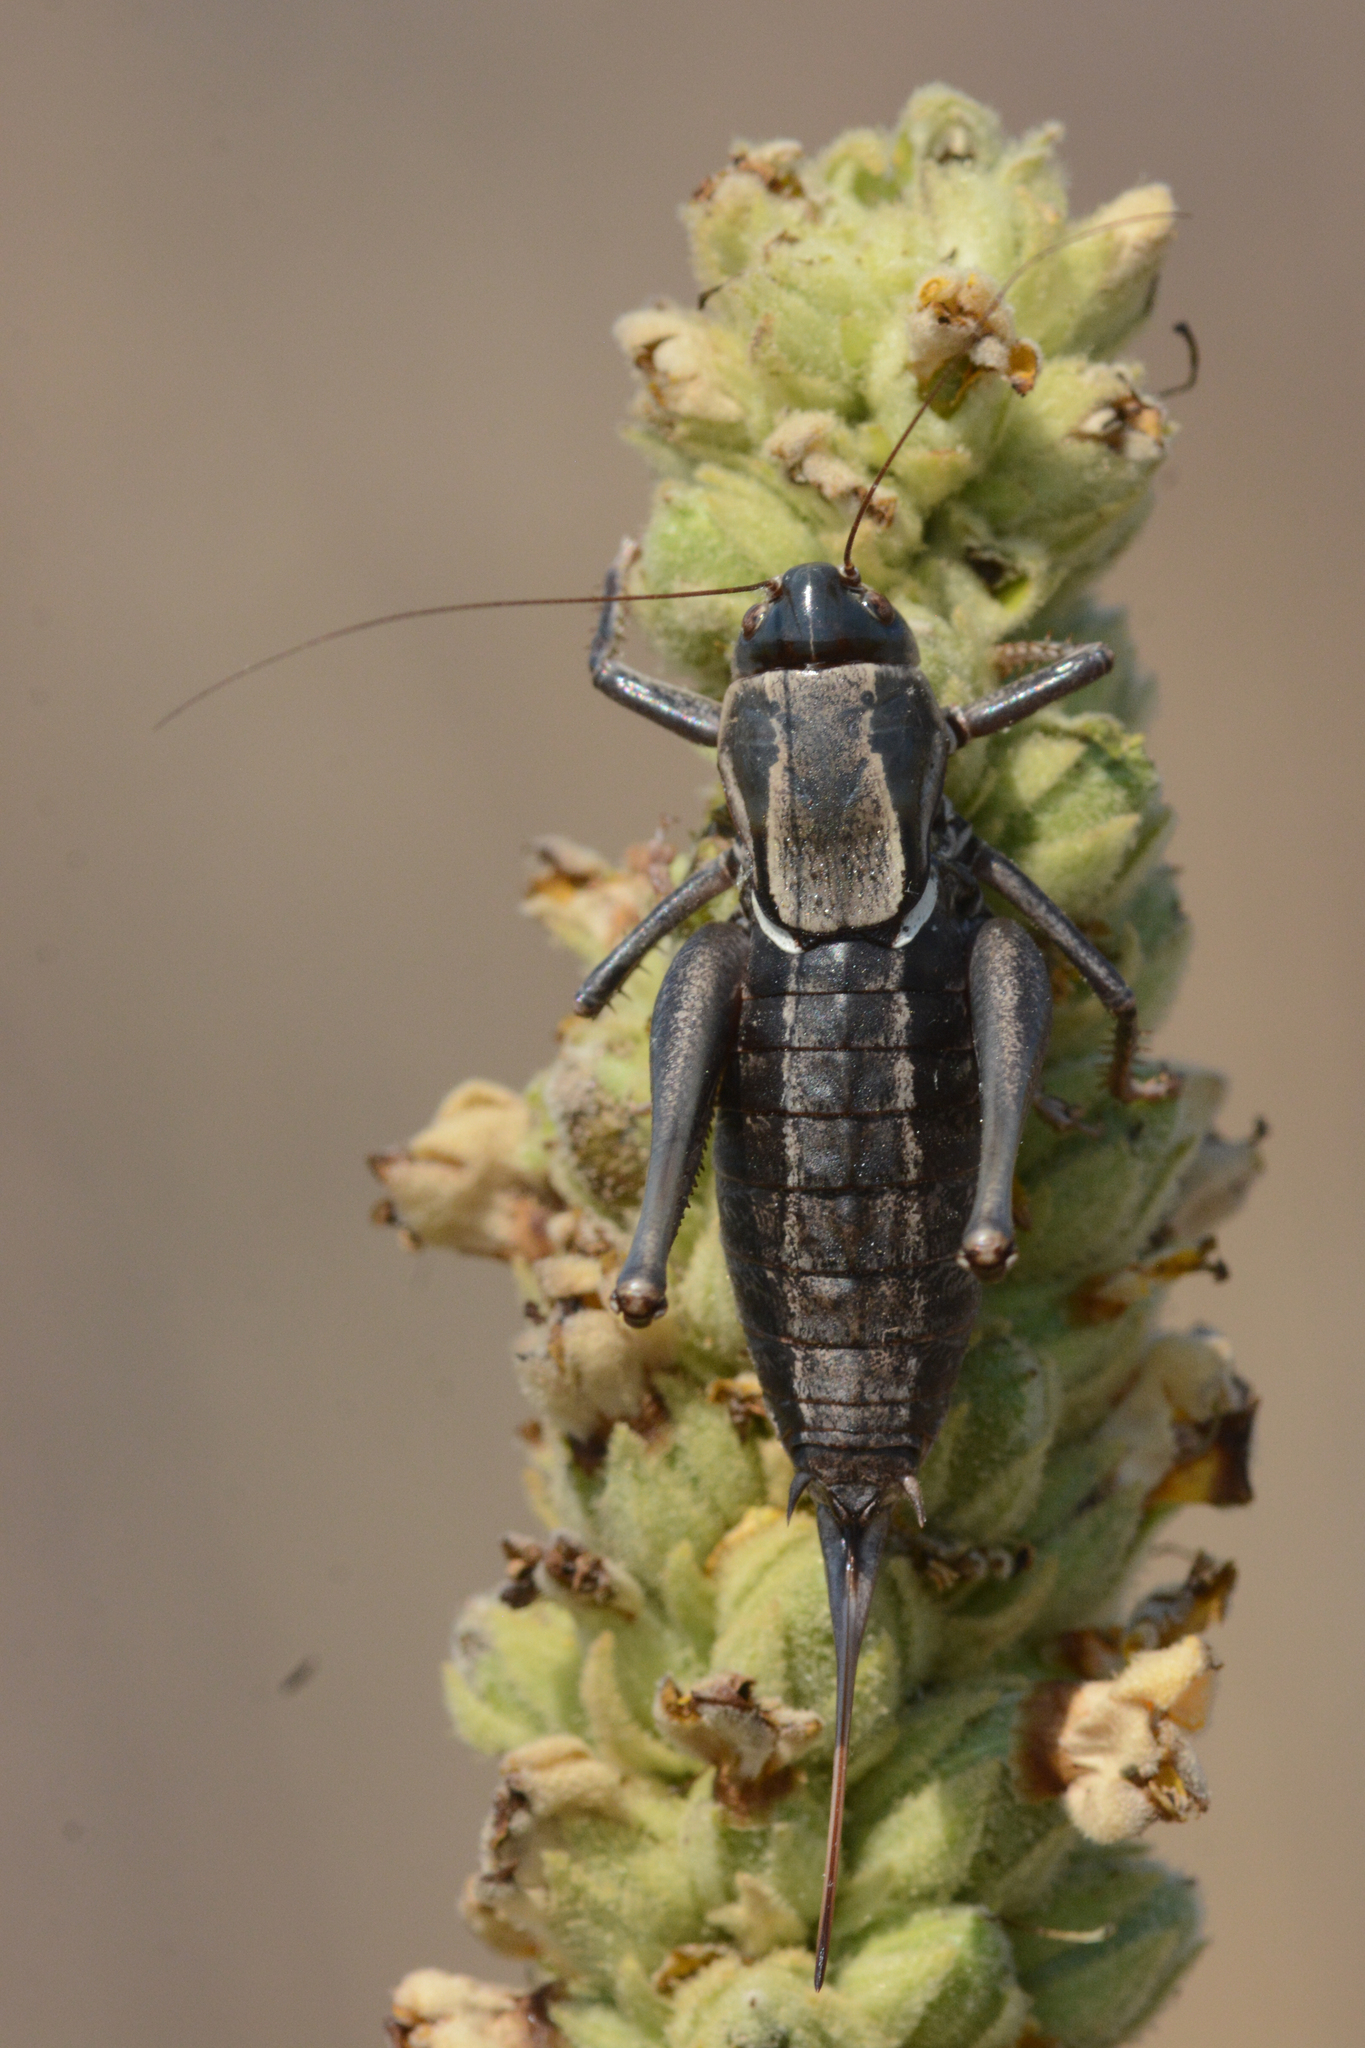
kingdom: Animalia
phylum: Arthropoda
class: Insecta
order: Orthoptera
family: Tettigoniidae
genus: Anabrus
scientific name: Anabrus longipes
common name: Long-legged anabrus
